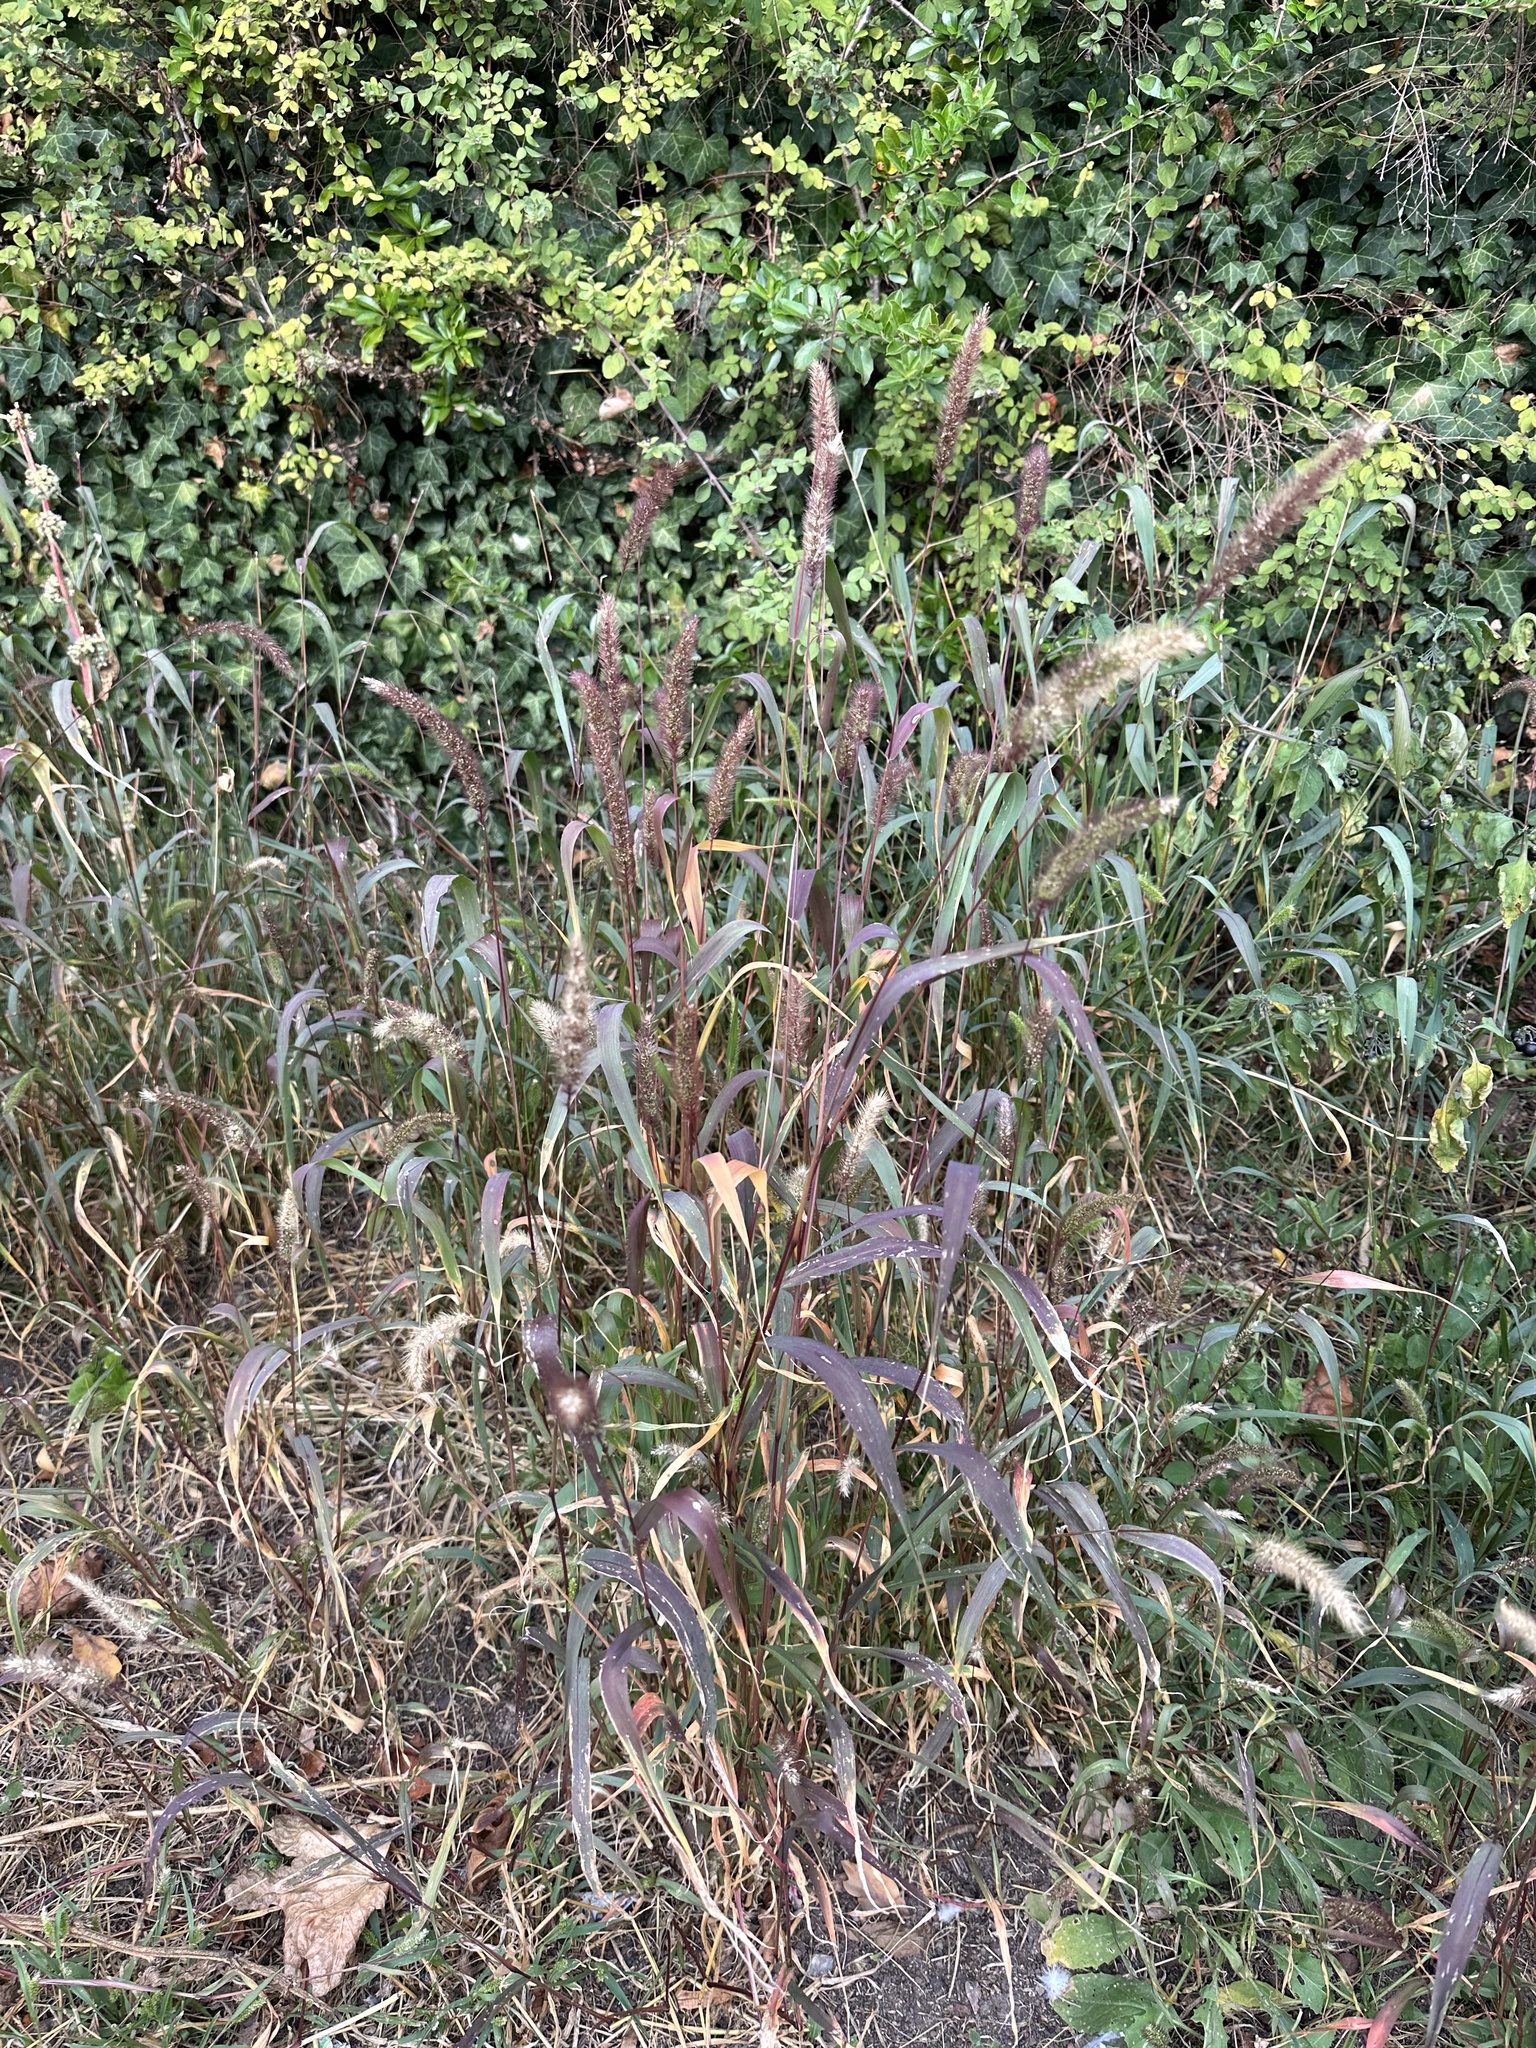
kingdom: Plantae
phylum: Tracheophyta
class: Liliopsida
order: Poales
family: Poaceae
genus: Setaria
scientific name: Setaria viridis
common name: Green bristlegrass
